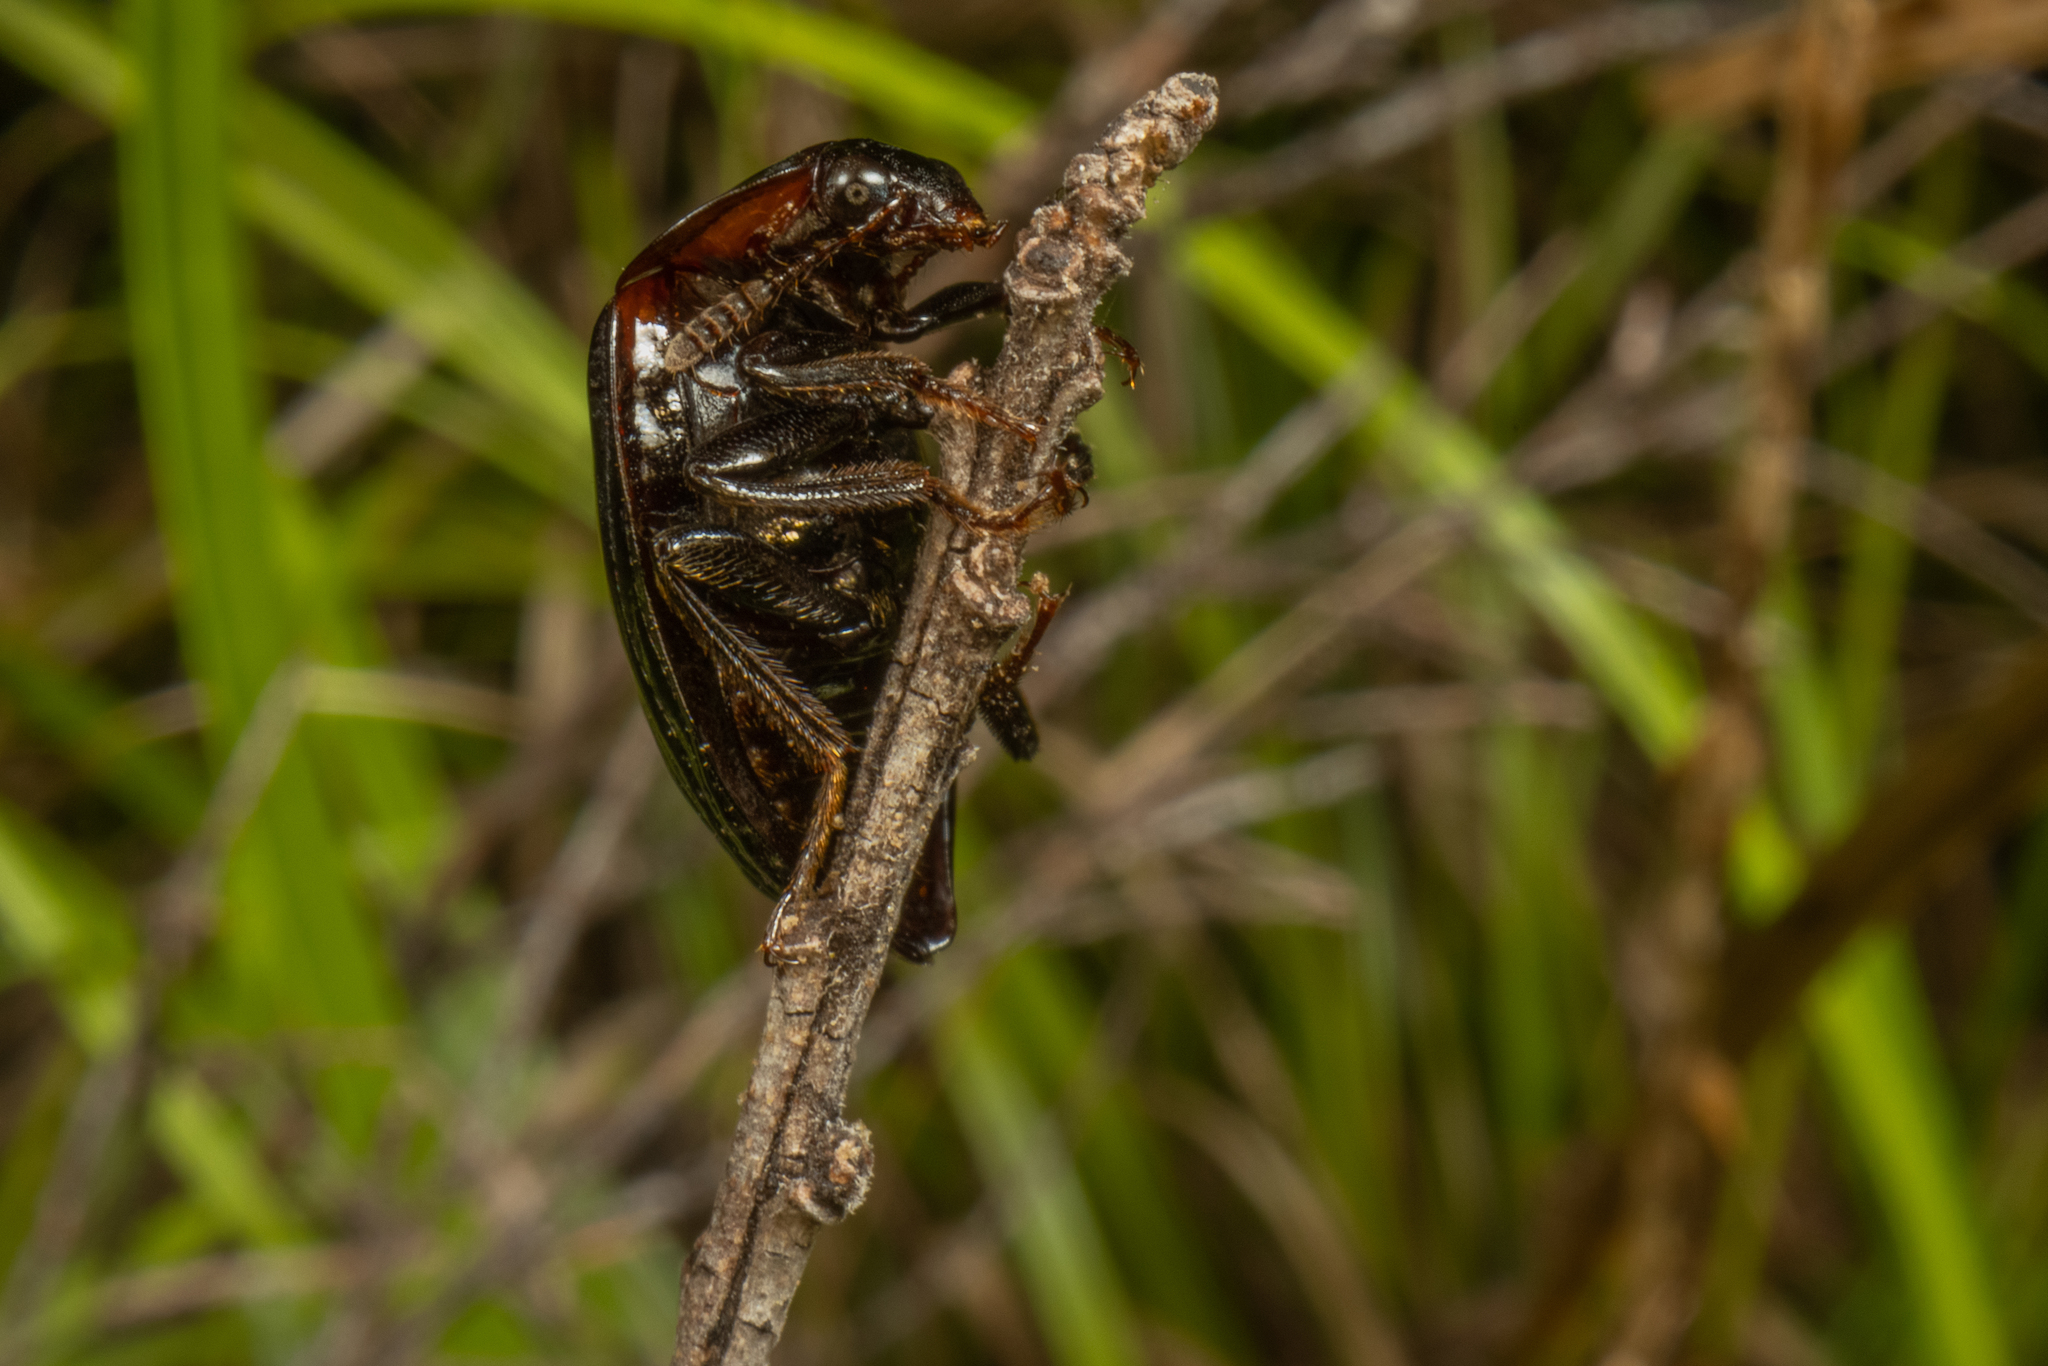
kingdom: Animalia
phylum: Arthropoda
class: Insecta
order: Coleoptera
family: Agyrtidae
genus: Zeanecrophilus
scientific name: Zeanecrophilus thayerae
